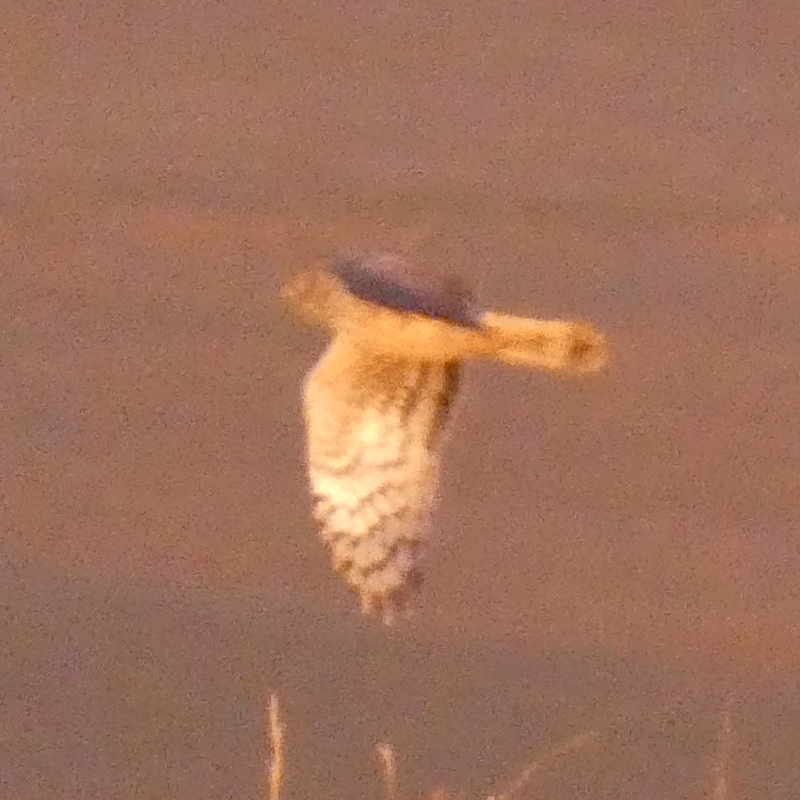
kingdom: Animalia
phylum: Chordata
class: Aves
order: Accipitriformes
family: Accipitridae
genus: Circus
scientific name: Circus cyaneus
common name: Hen harrier
